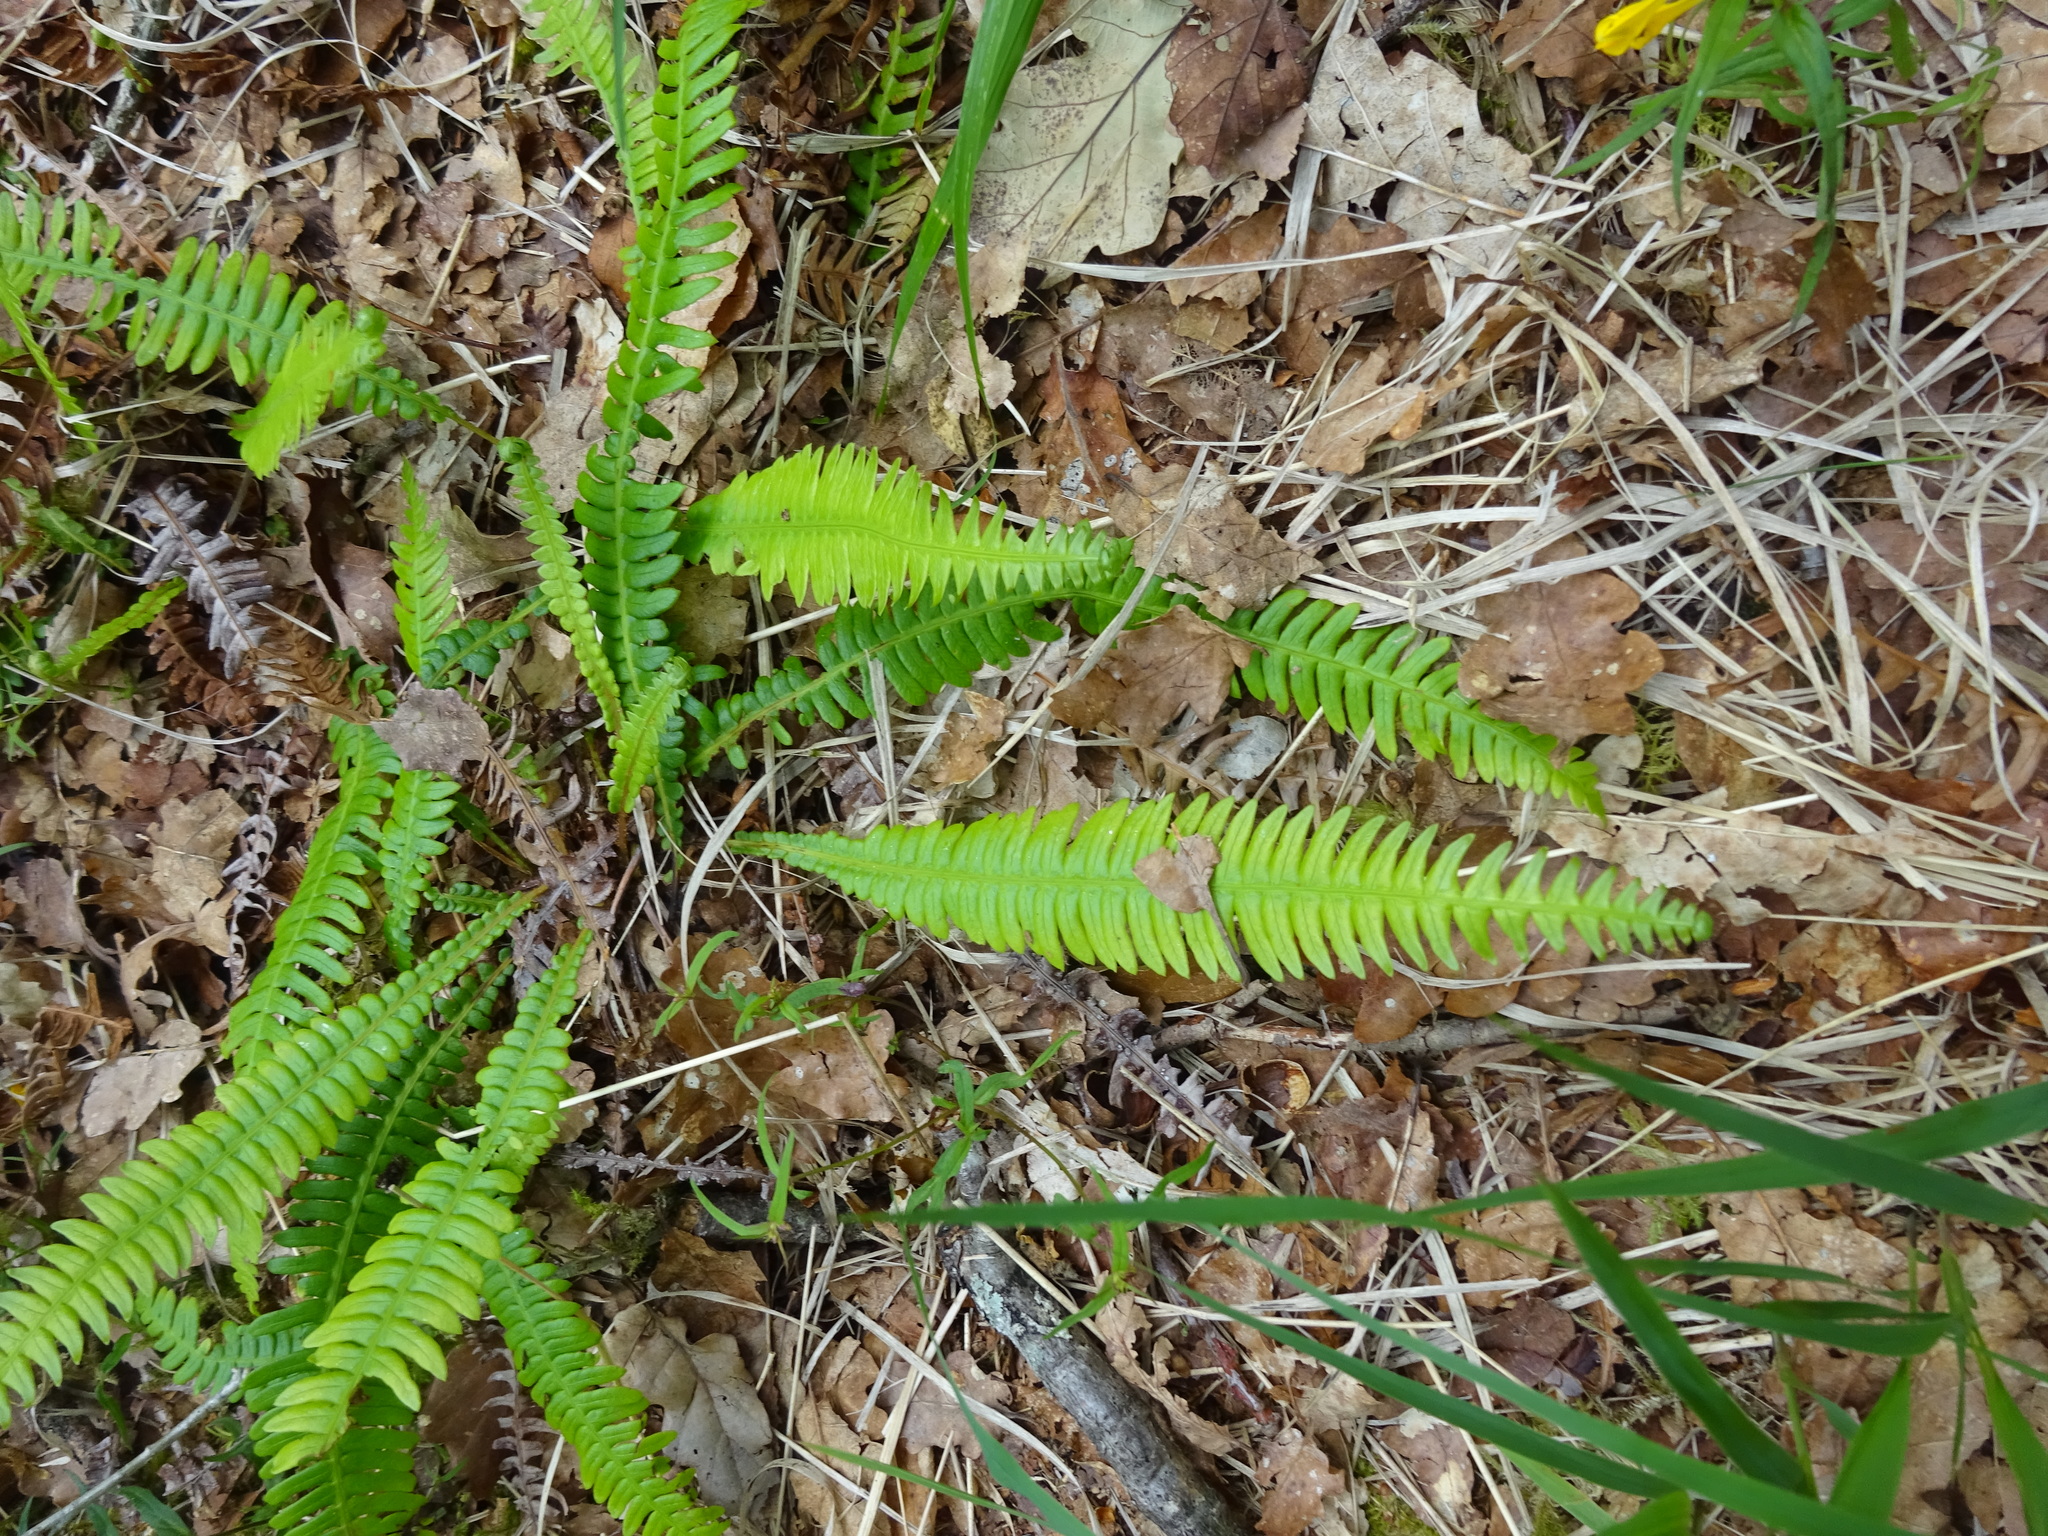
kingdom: Plantae
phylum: Tracheophyta
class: Polypodiopsida
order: Polypodiales
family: Blechnaceae
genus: Struthiopteris
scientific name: Struthiopteris spicant
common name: Deer fern
